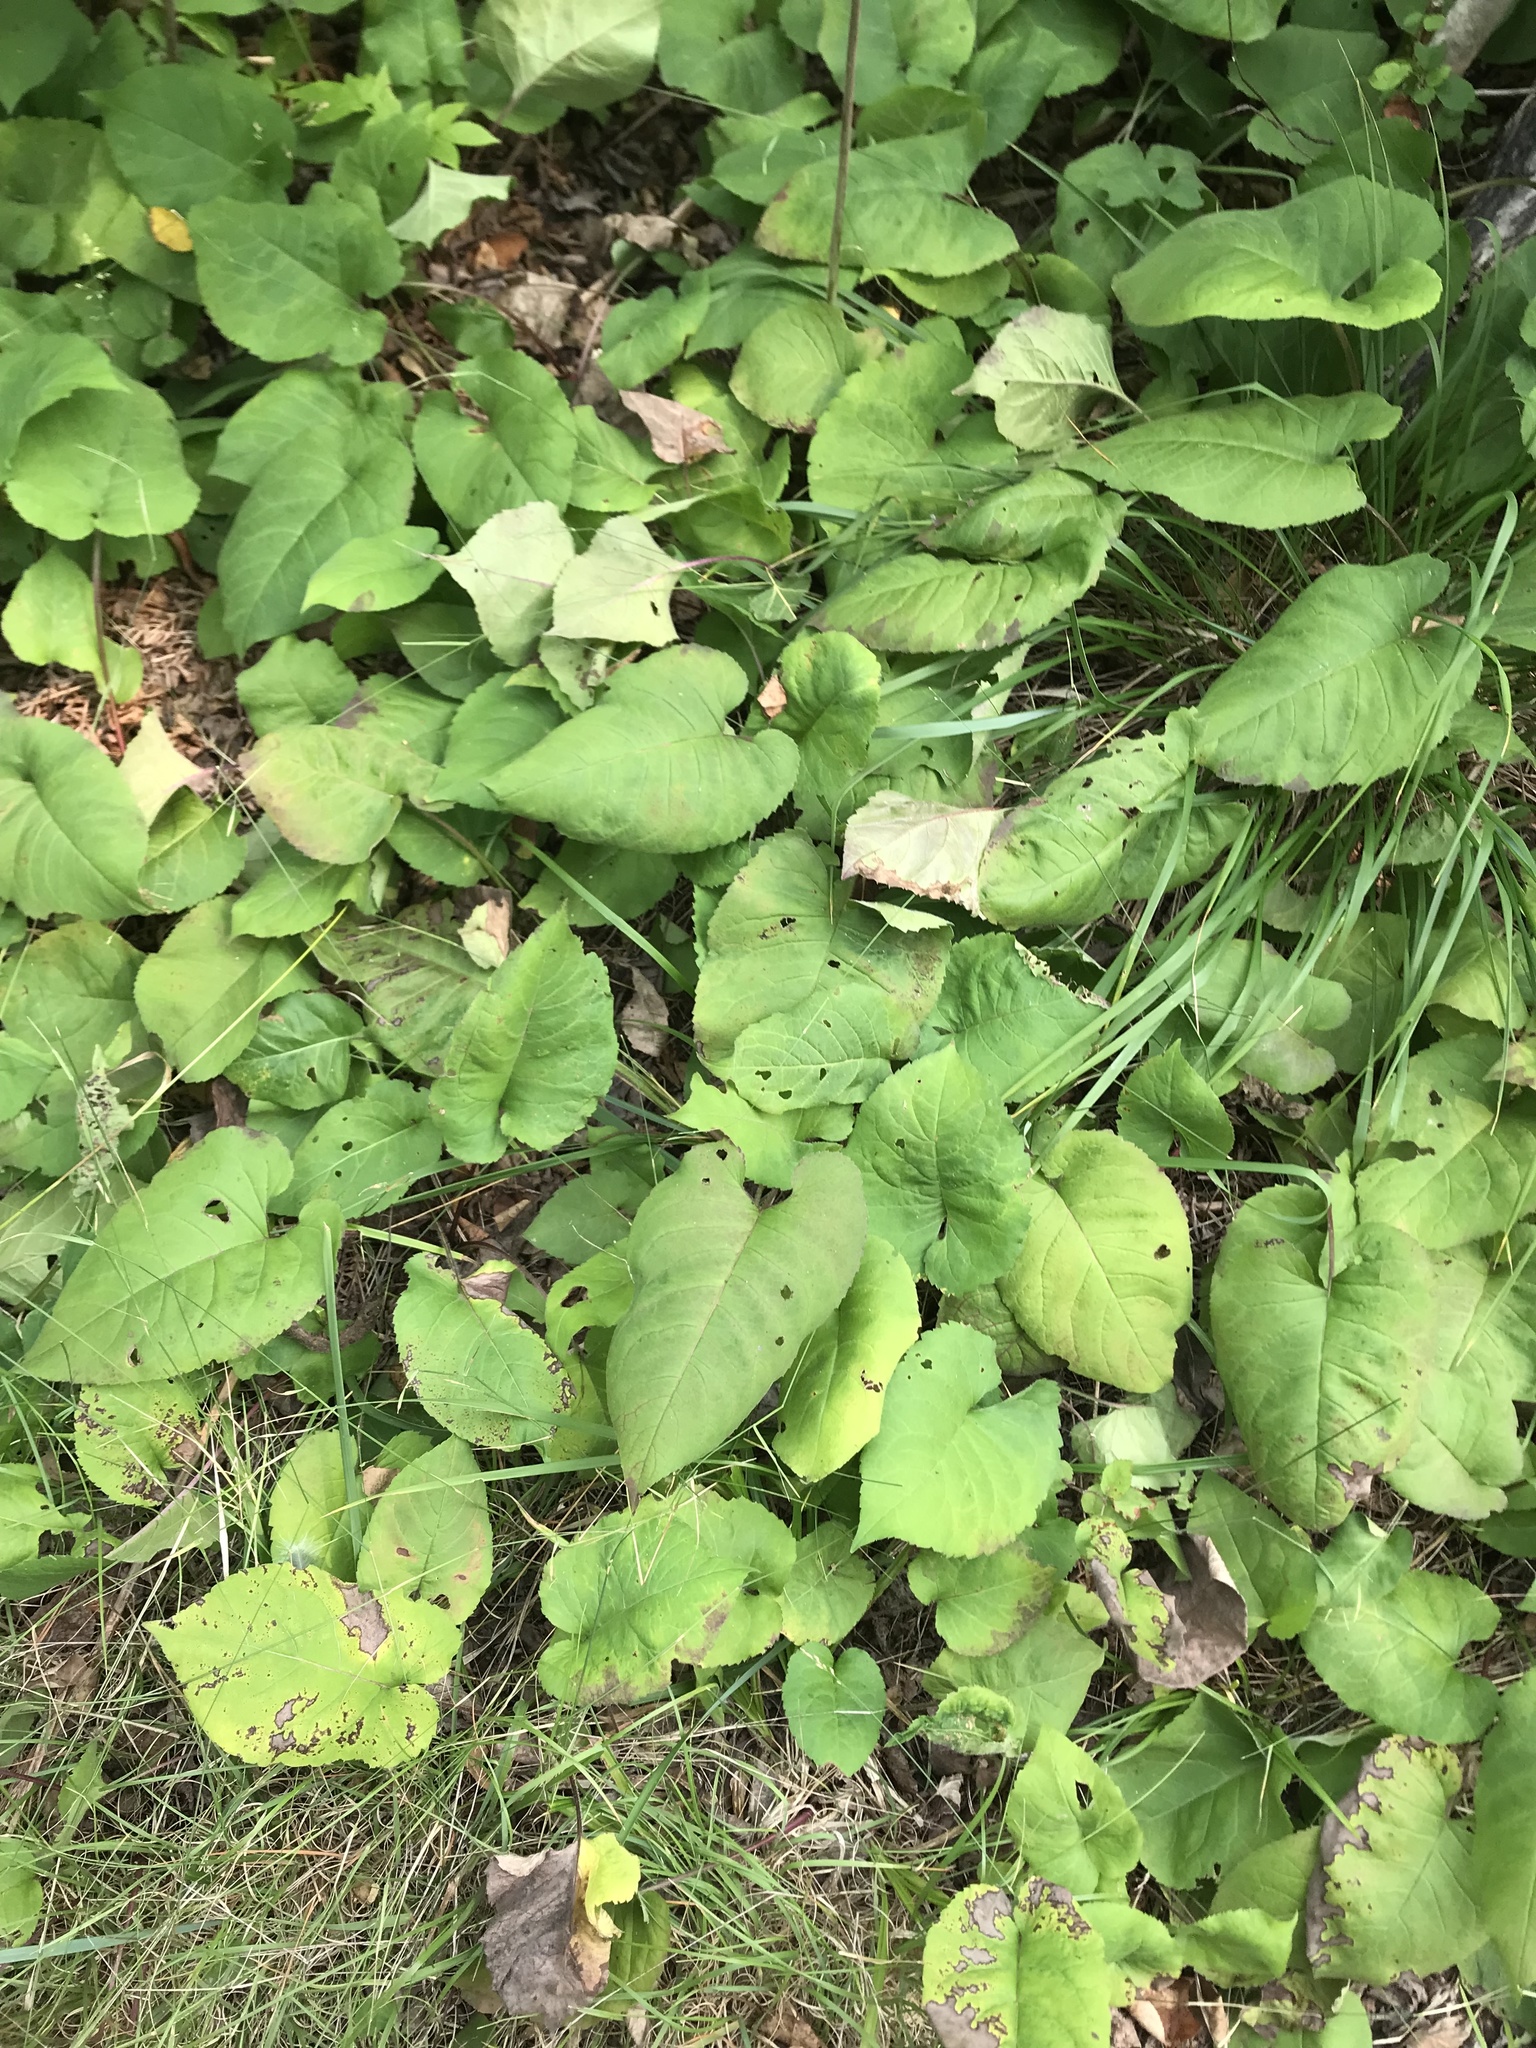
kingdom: Plantae
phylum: Tracheophyta
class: Magnoliopsida
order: Asterales
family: Asteraceae
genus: Eurybia
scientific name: Eurybia macrophylla
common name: Big-leaved aster
